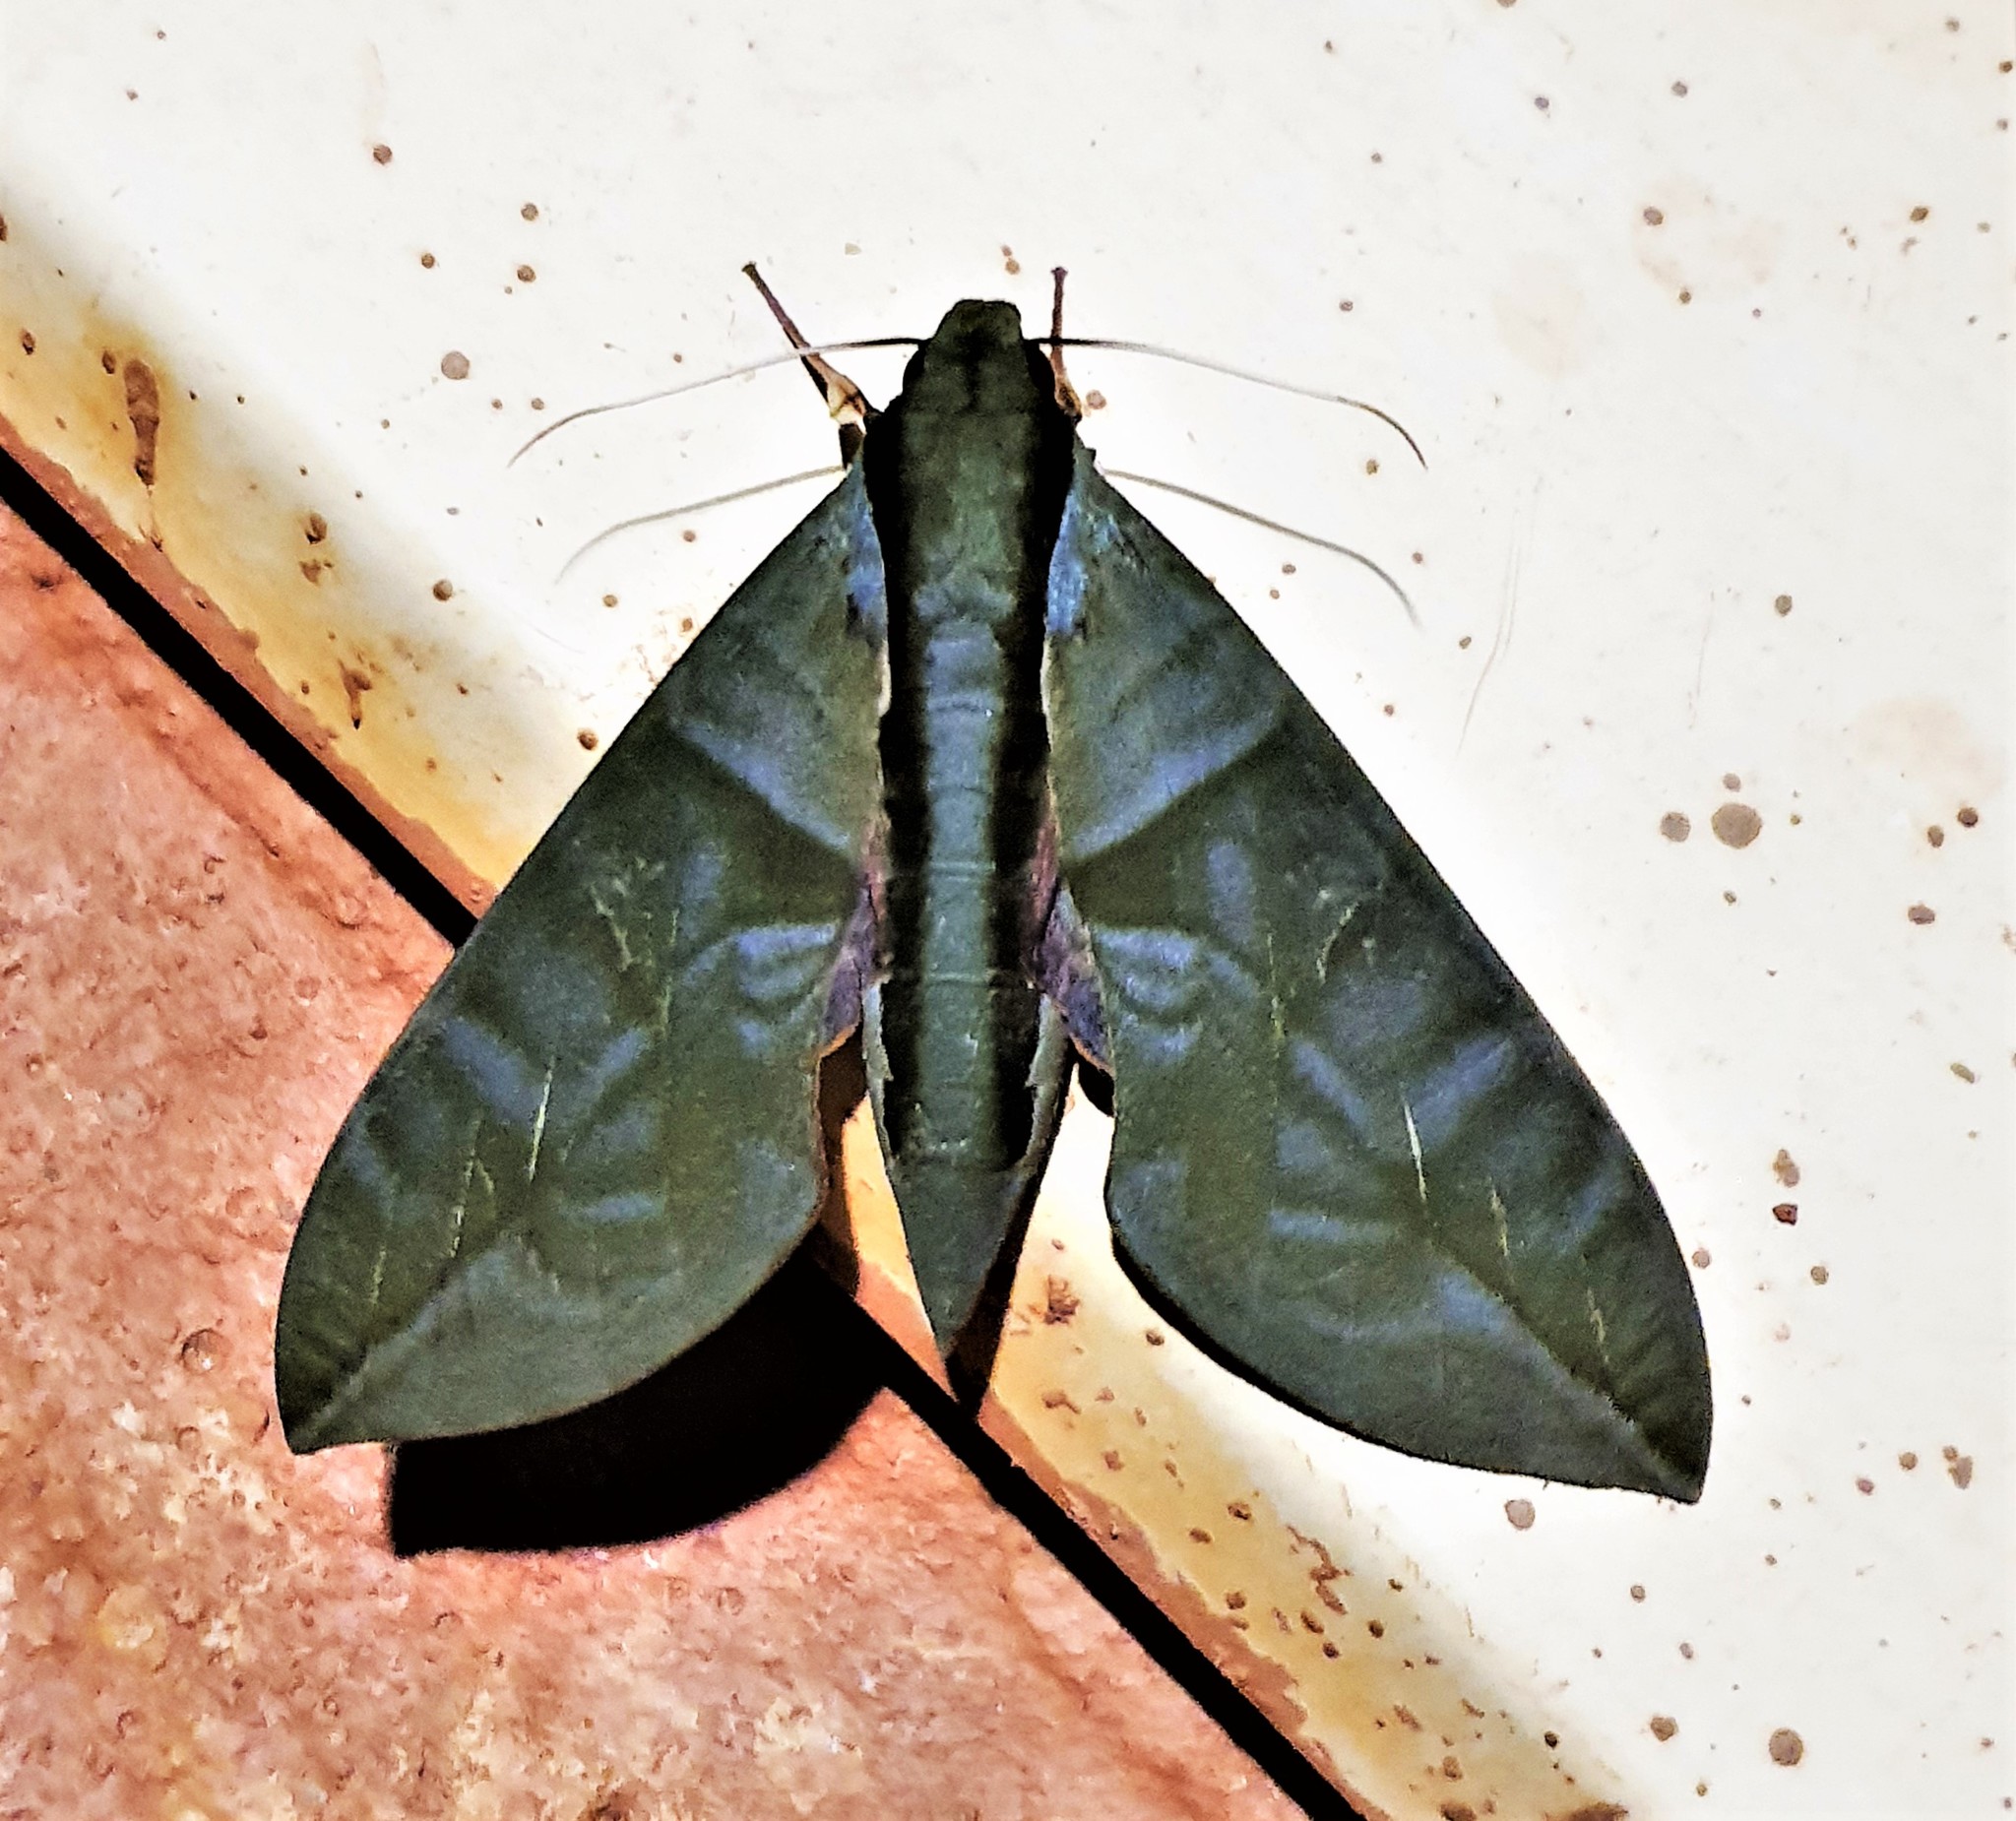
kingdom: Animalia
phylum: Arthropoda
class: Insecta
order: Lepidoptera
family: Sphingidae
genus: Eumorpha
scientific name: Eumorpha phorbas
